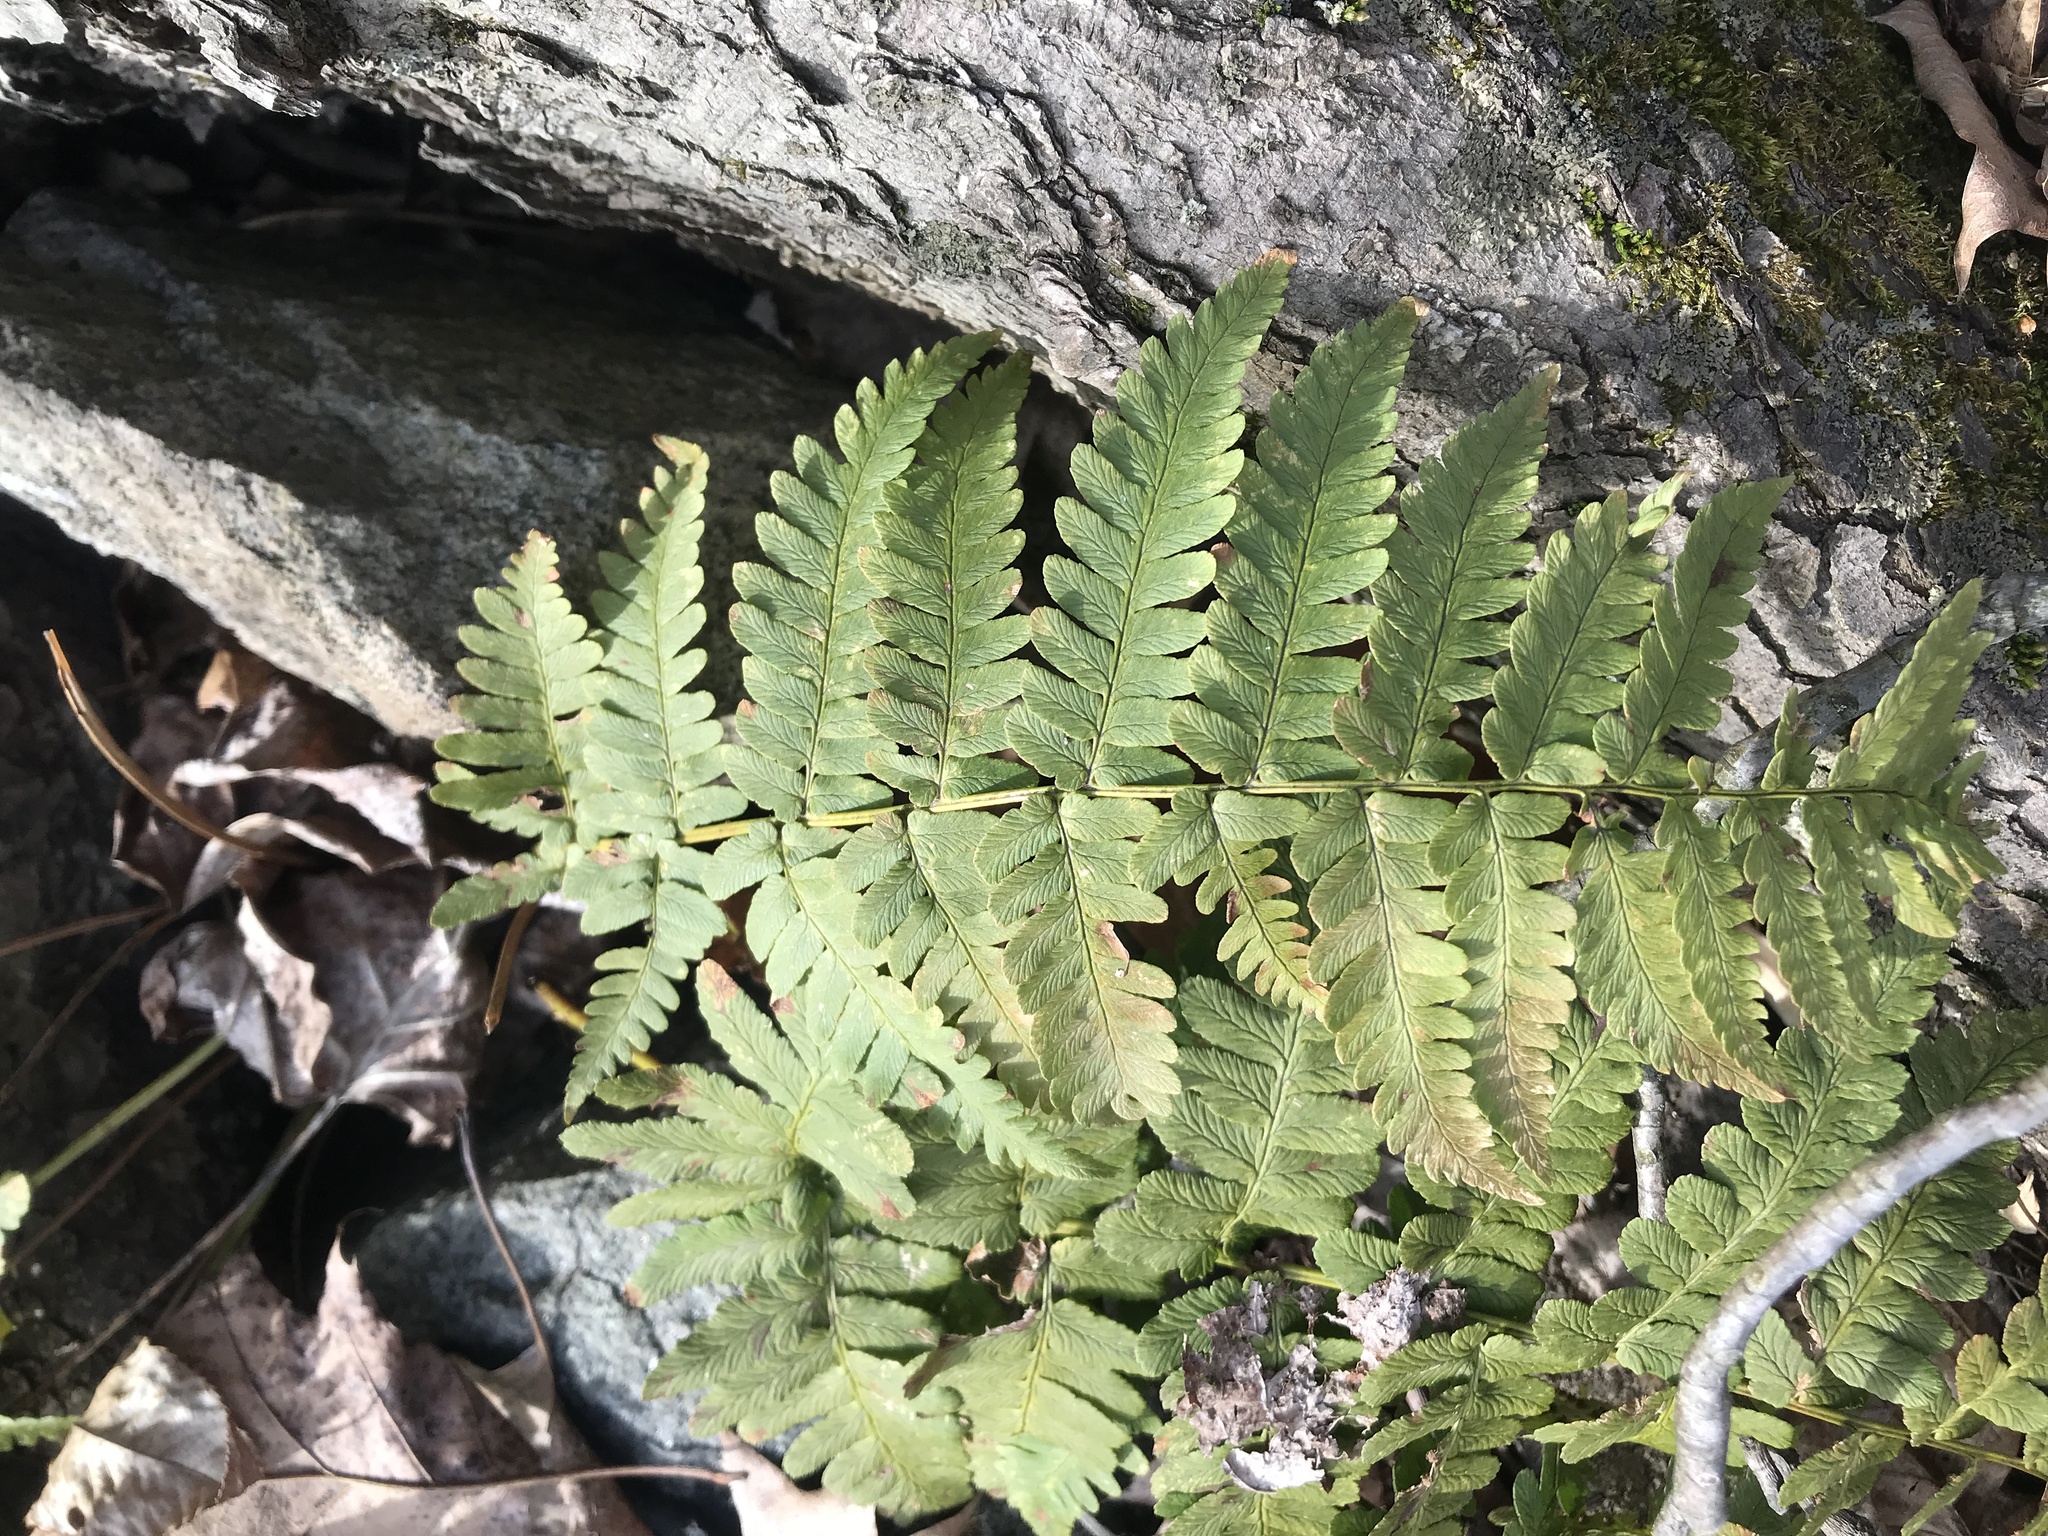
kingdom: Plantae
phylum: Tracheophyta
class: Polypodiopsida
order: Polypodiales
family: Dryopteridaceae
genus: Dryopteris
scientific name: Dryopteris marginalis
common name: Marginal wood fern
